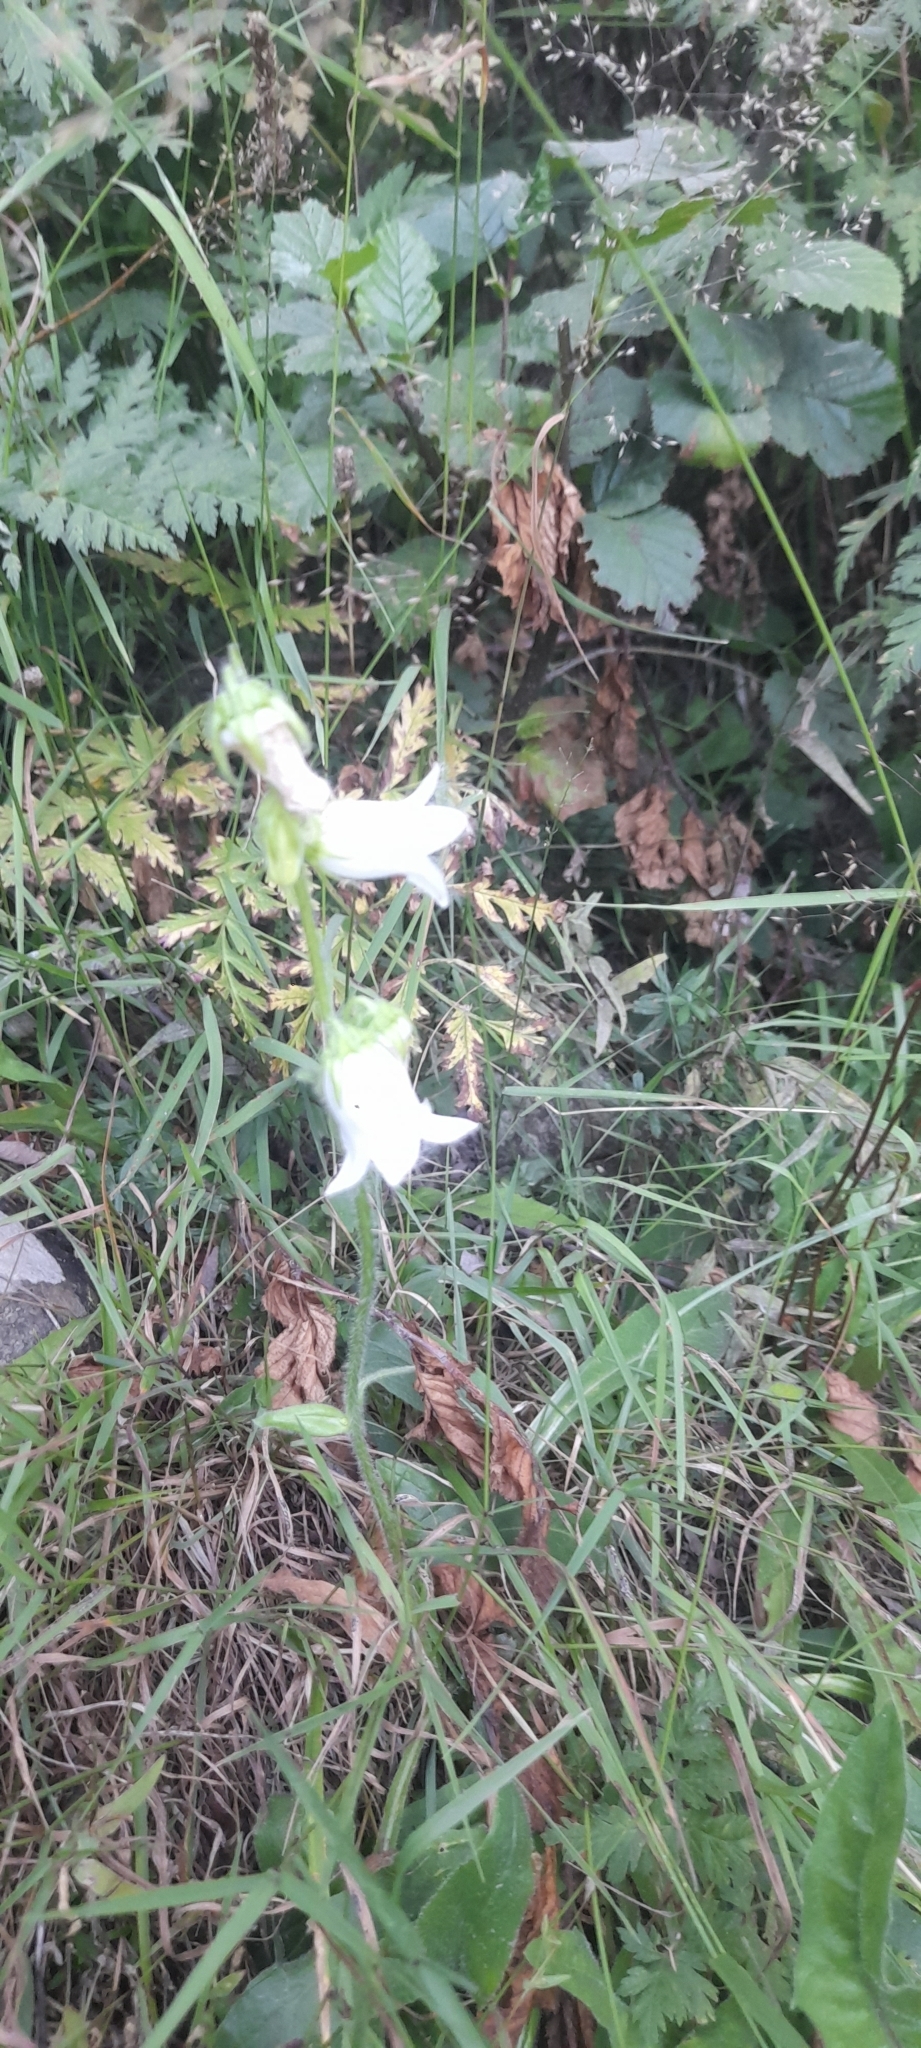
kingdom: Plantae
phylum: Tracheophyta
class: Magnoliopsida
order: Asterales
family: Campanulaceae
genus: Campanula
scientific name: Campanula barbata
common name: Bearded bellflower
